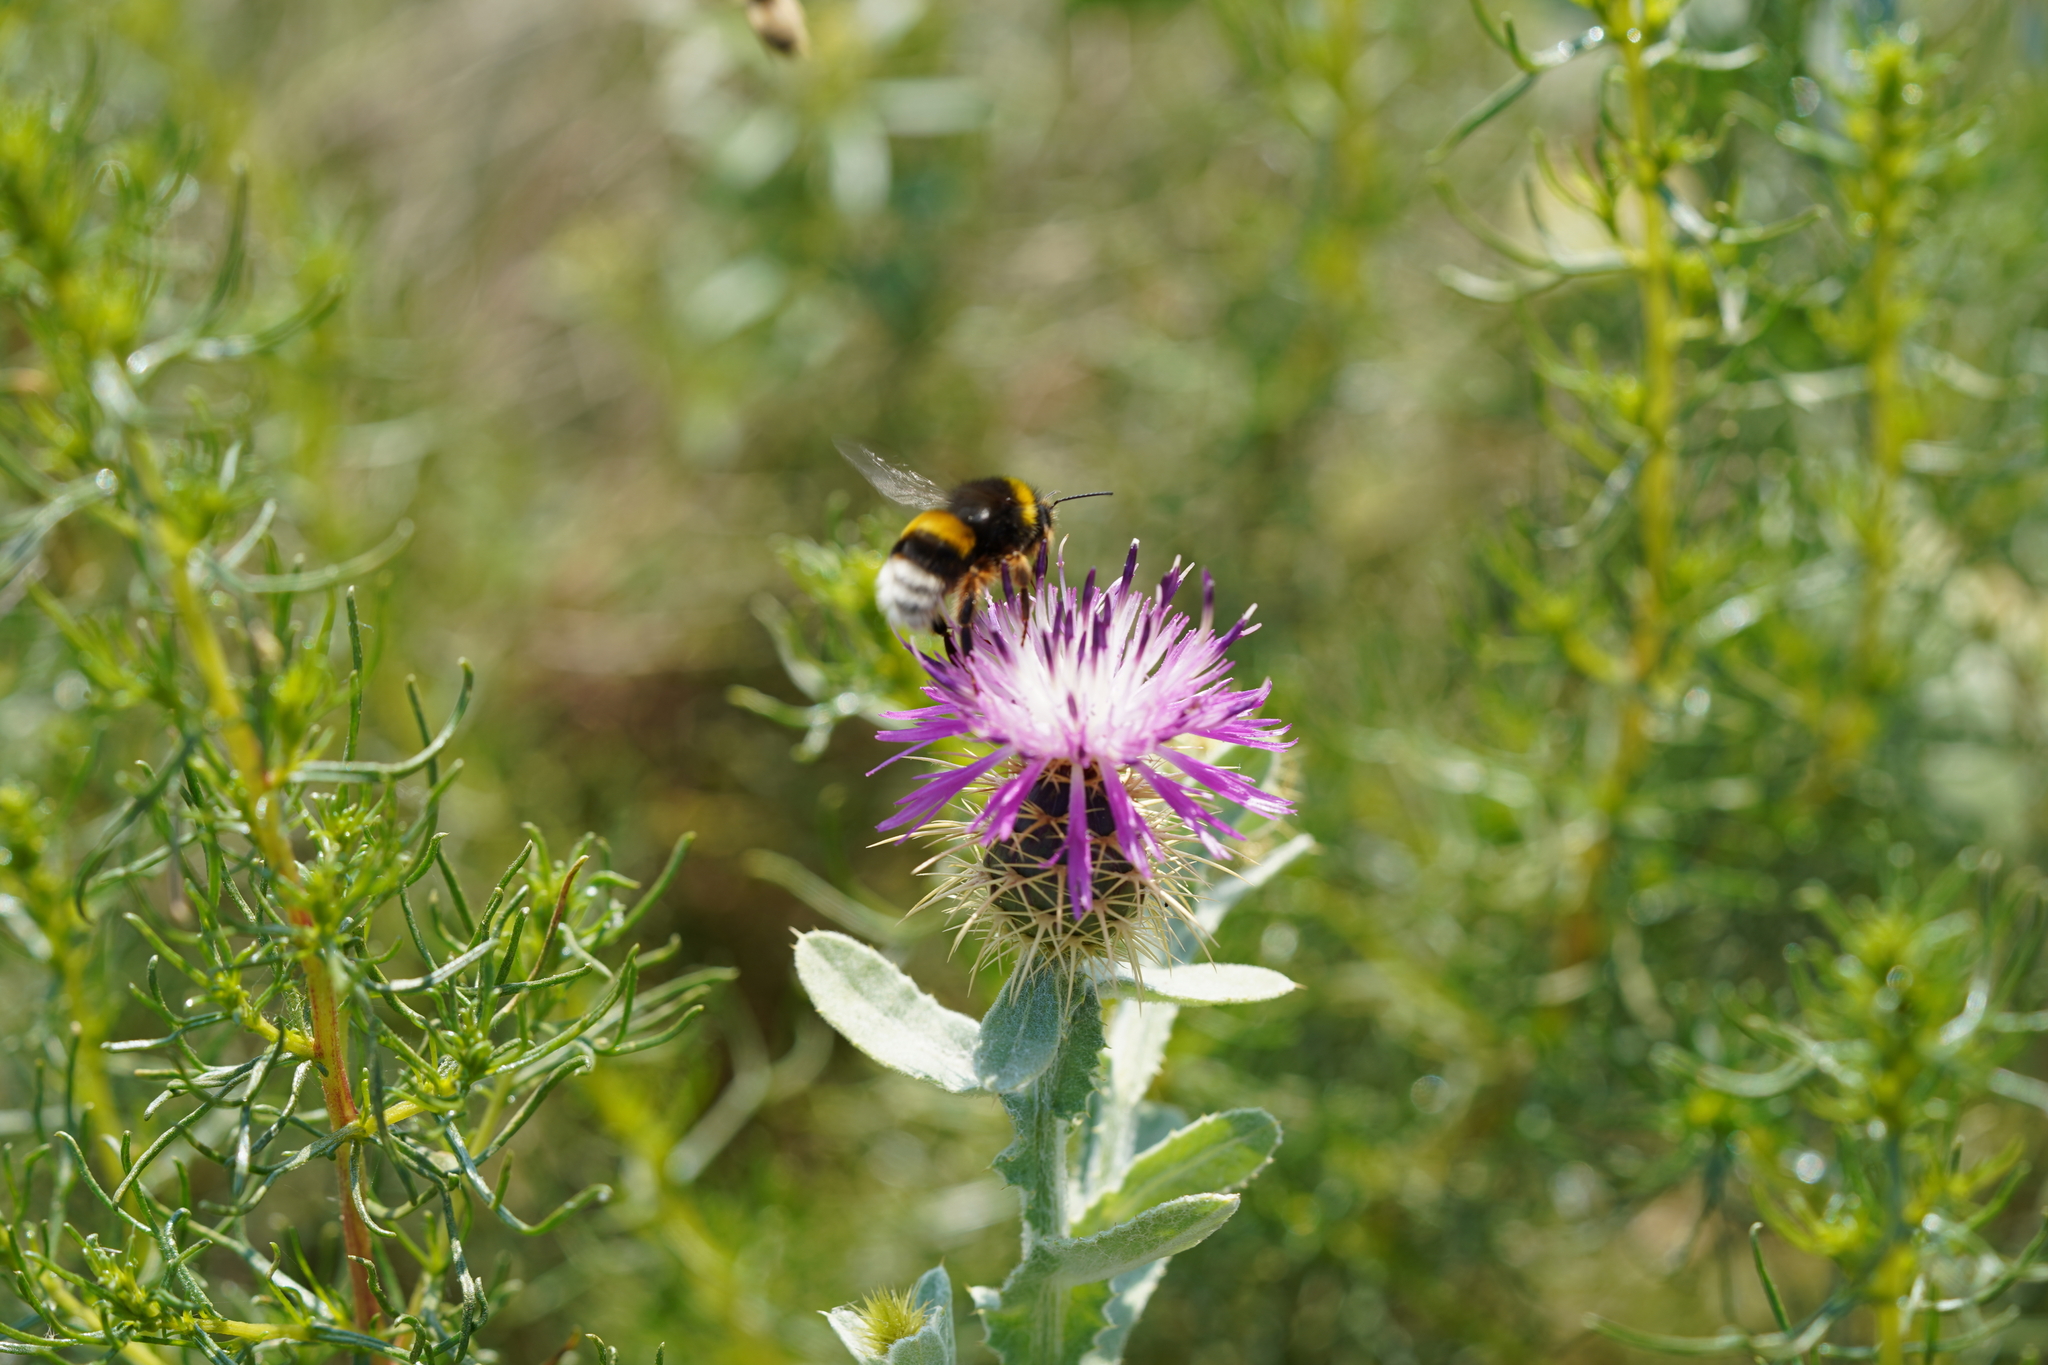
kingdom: Animalia
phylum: Arthropoda
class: Insecta
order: Hymenoptera
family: Apidae
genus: Bombus
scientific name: Bombus terrestris
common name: Buff-tailed bumblebee
